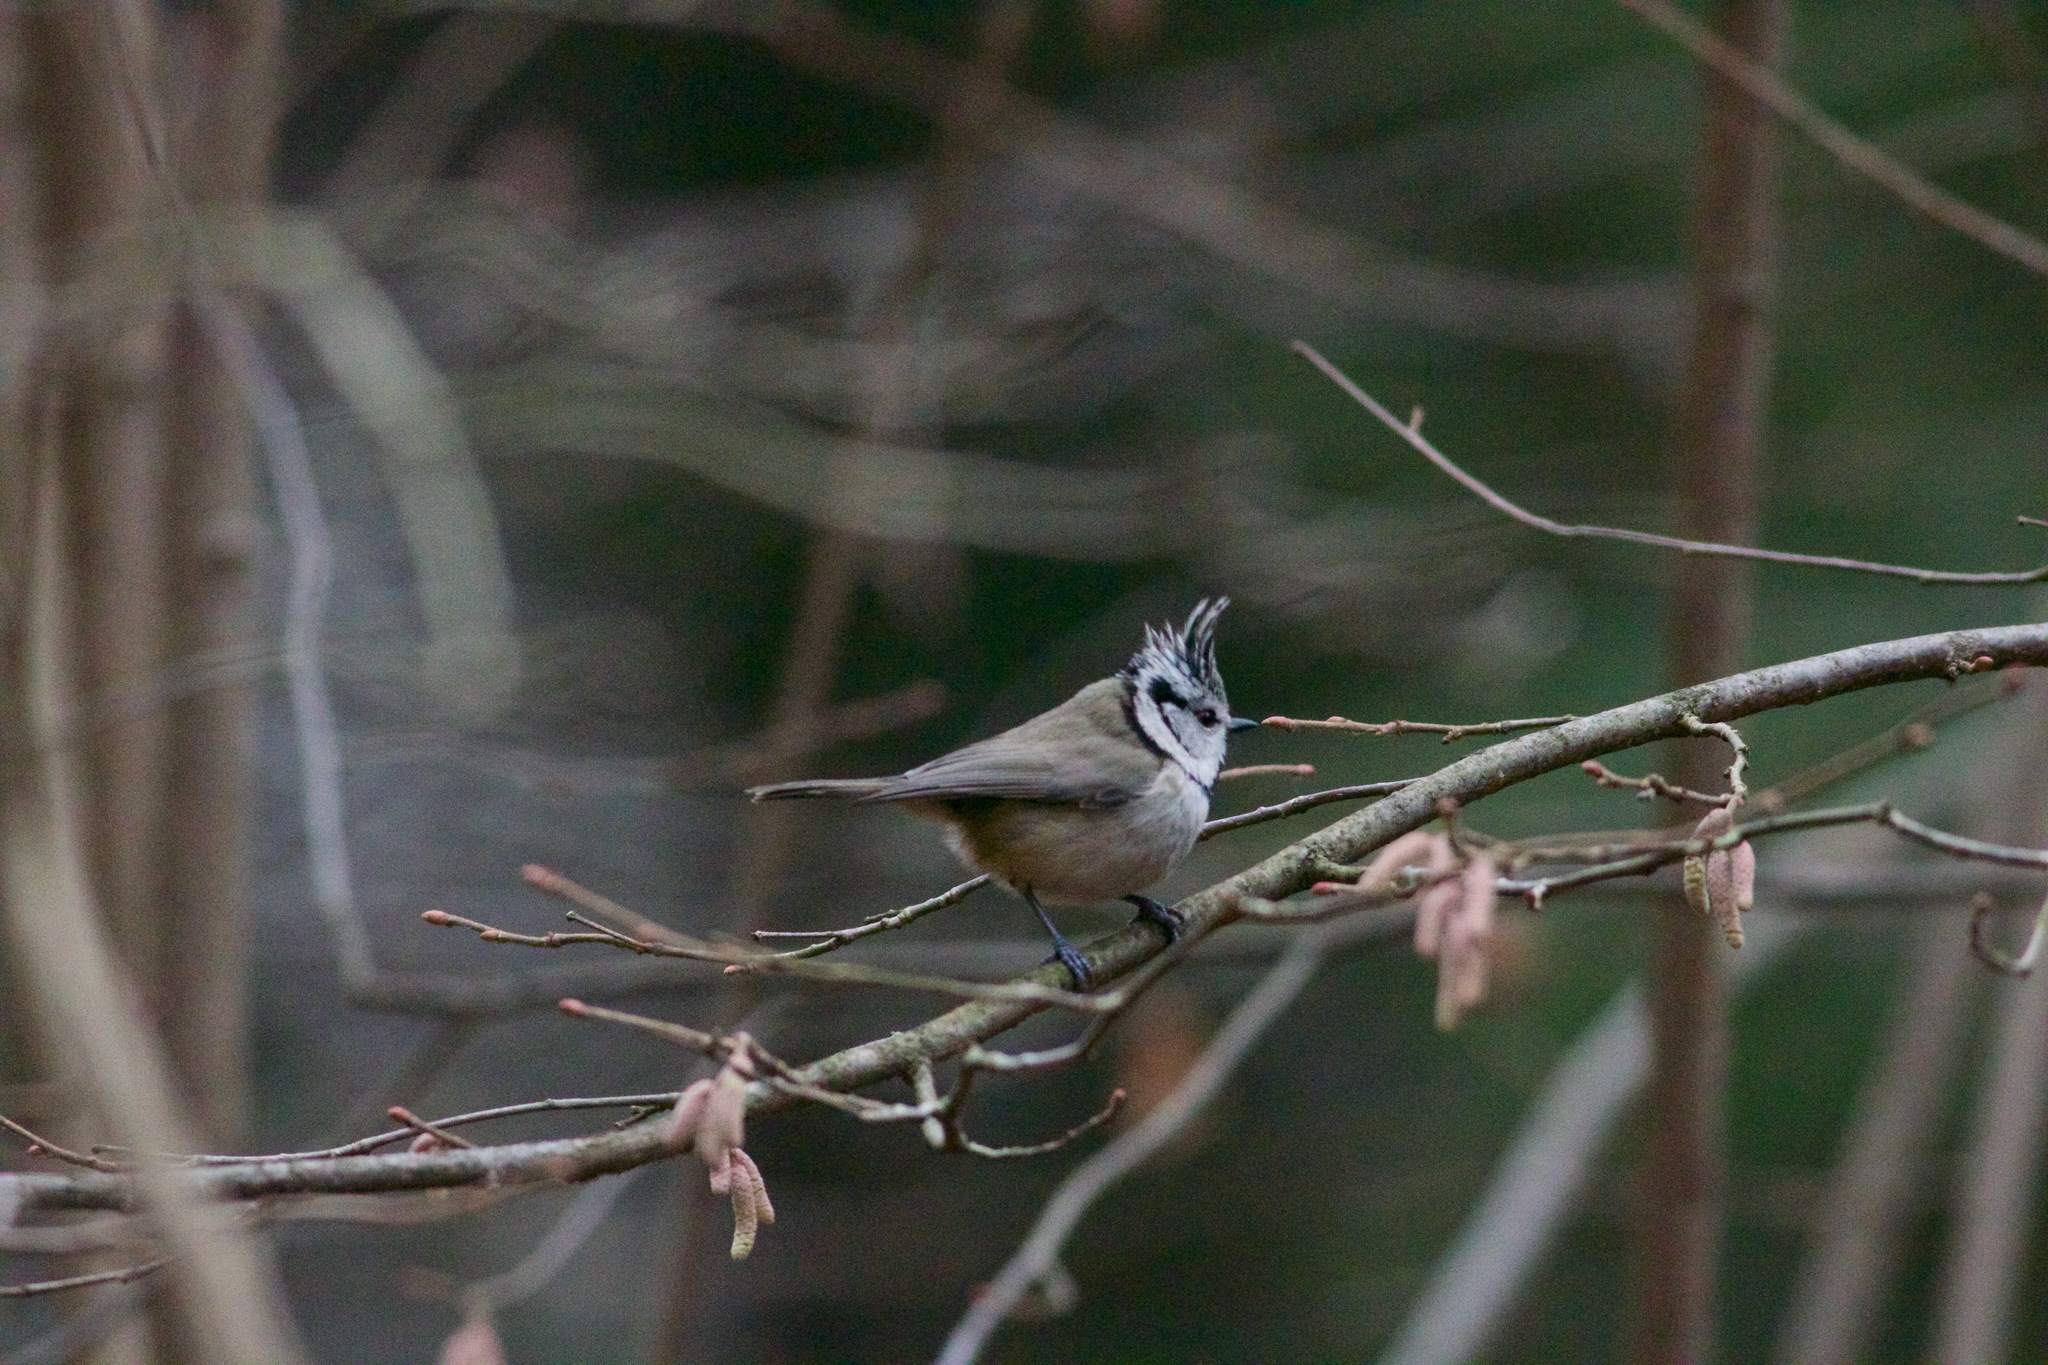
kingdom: Animalia
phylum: Chordata
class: Aves
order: Passeriformes
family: Paridae
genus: Lophophanes
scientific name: Lophophanes cristatus
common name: European crested tit
